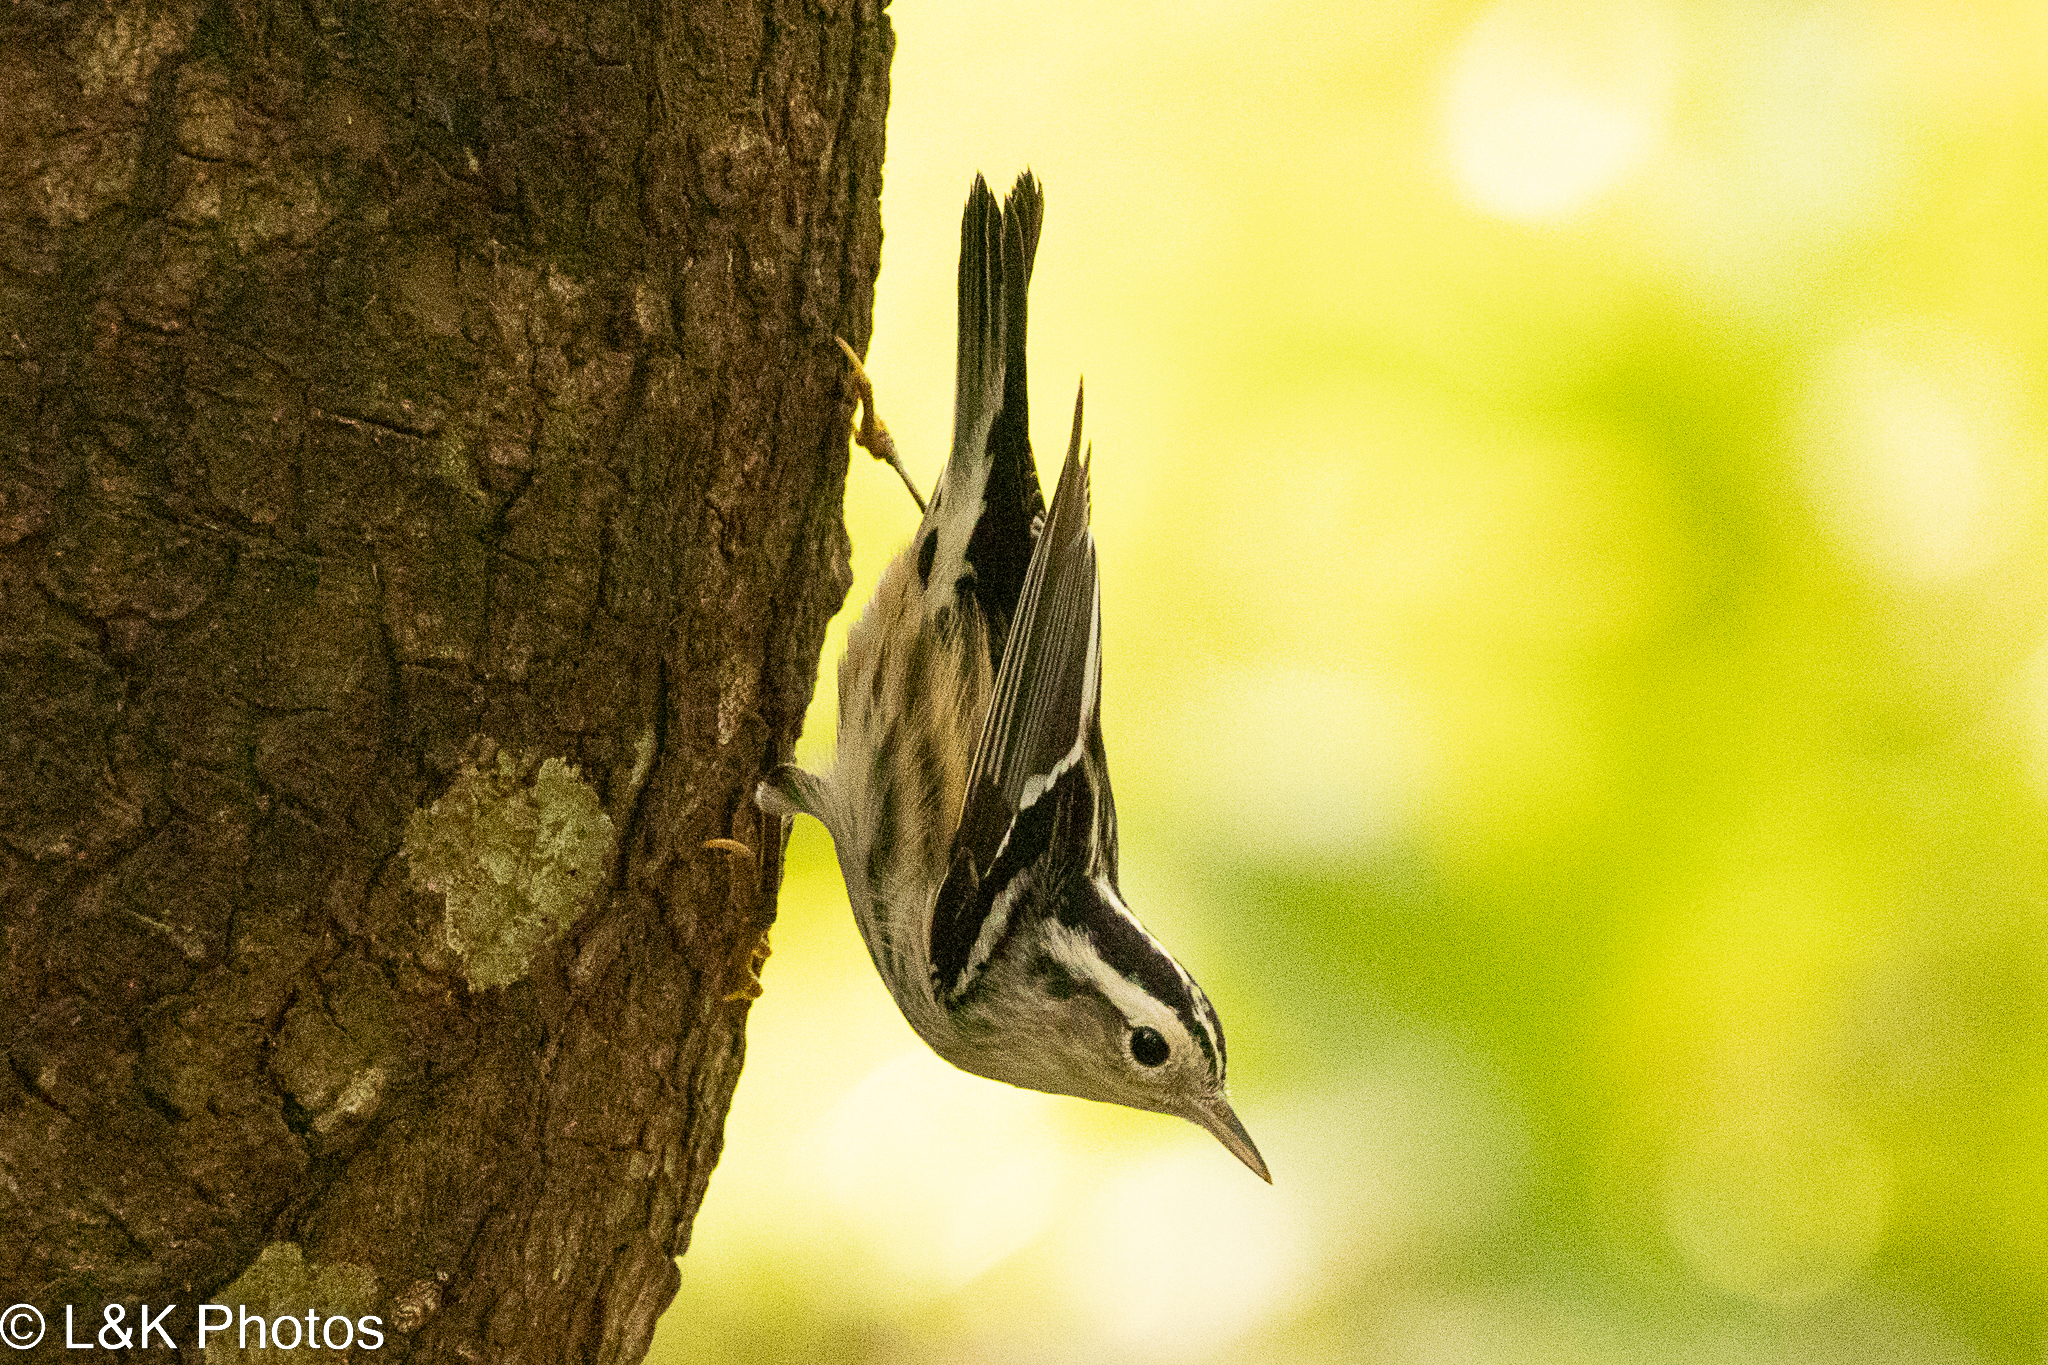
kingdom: Animalia
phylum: Chordata
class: Aves
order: Passeriformes
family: Parulidae
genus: Mniotilta
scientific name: Mniotilta varia
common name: Black-and-white warbler
